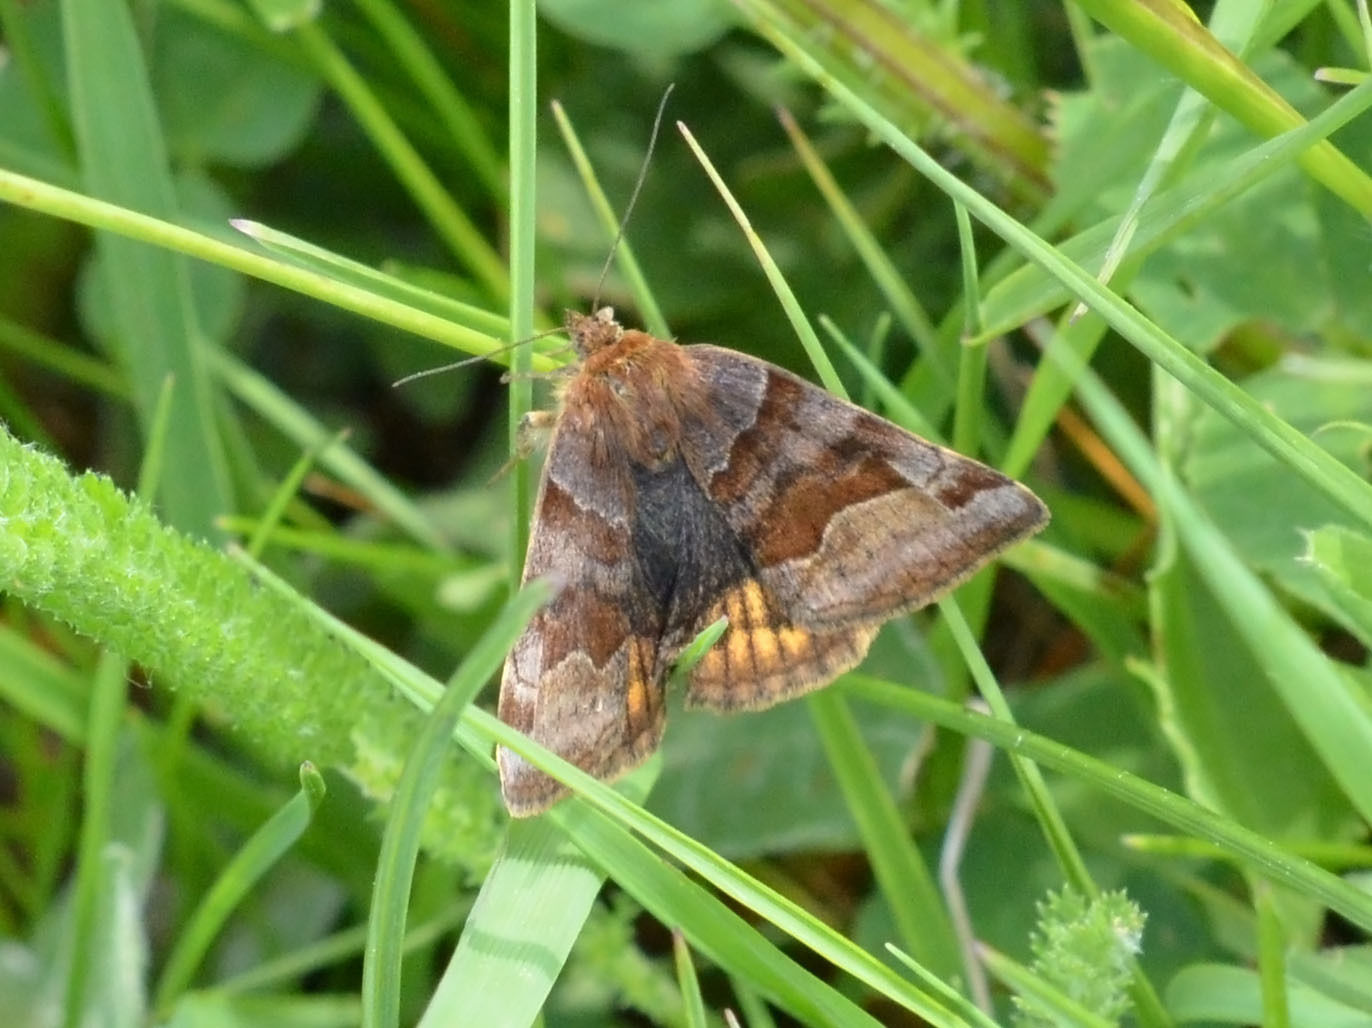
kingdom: Animalia
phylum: Arthropoda
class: Insecta
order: Lepidoptera
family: Erebidae
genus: Euclidia
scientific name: Euclidia glyphica
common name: Burnet companion
